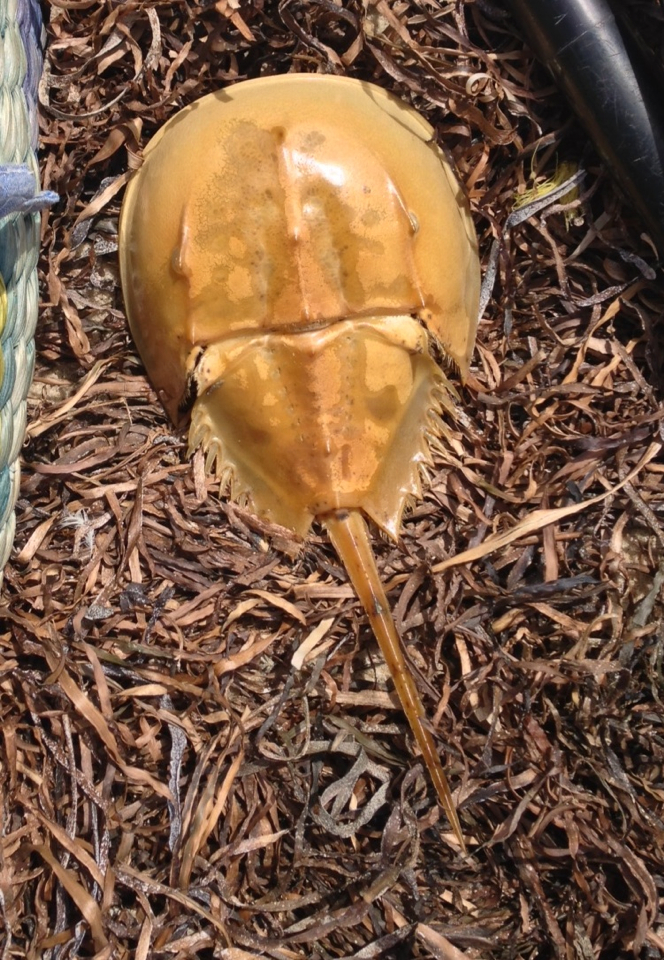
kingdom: Animalia
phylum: Arthropoda
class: Merostomata
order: Xiphosurida
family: Limulidae
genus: Limulus
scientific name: Limulus polyphemus
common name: Horseshoe crab
